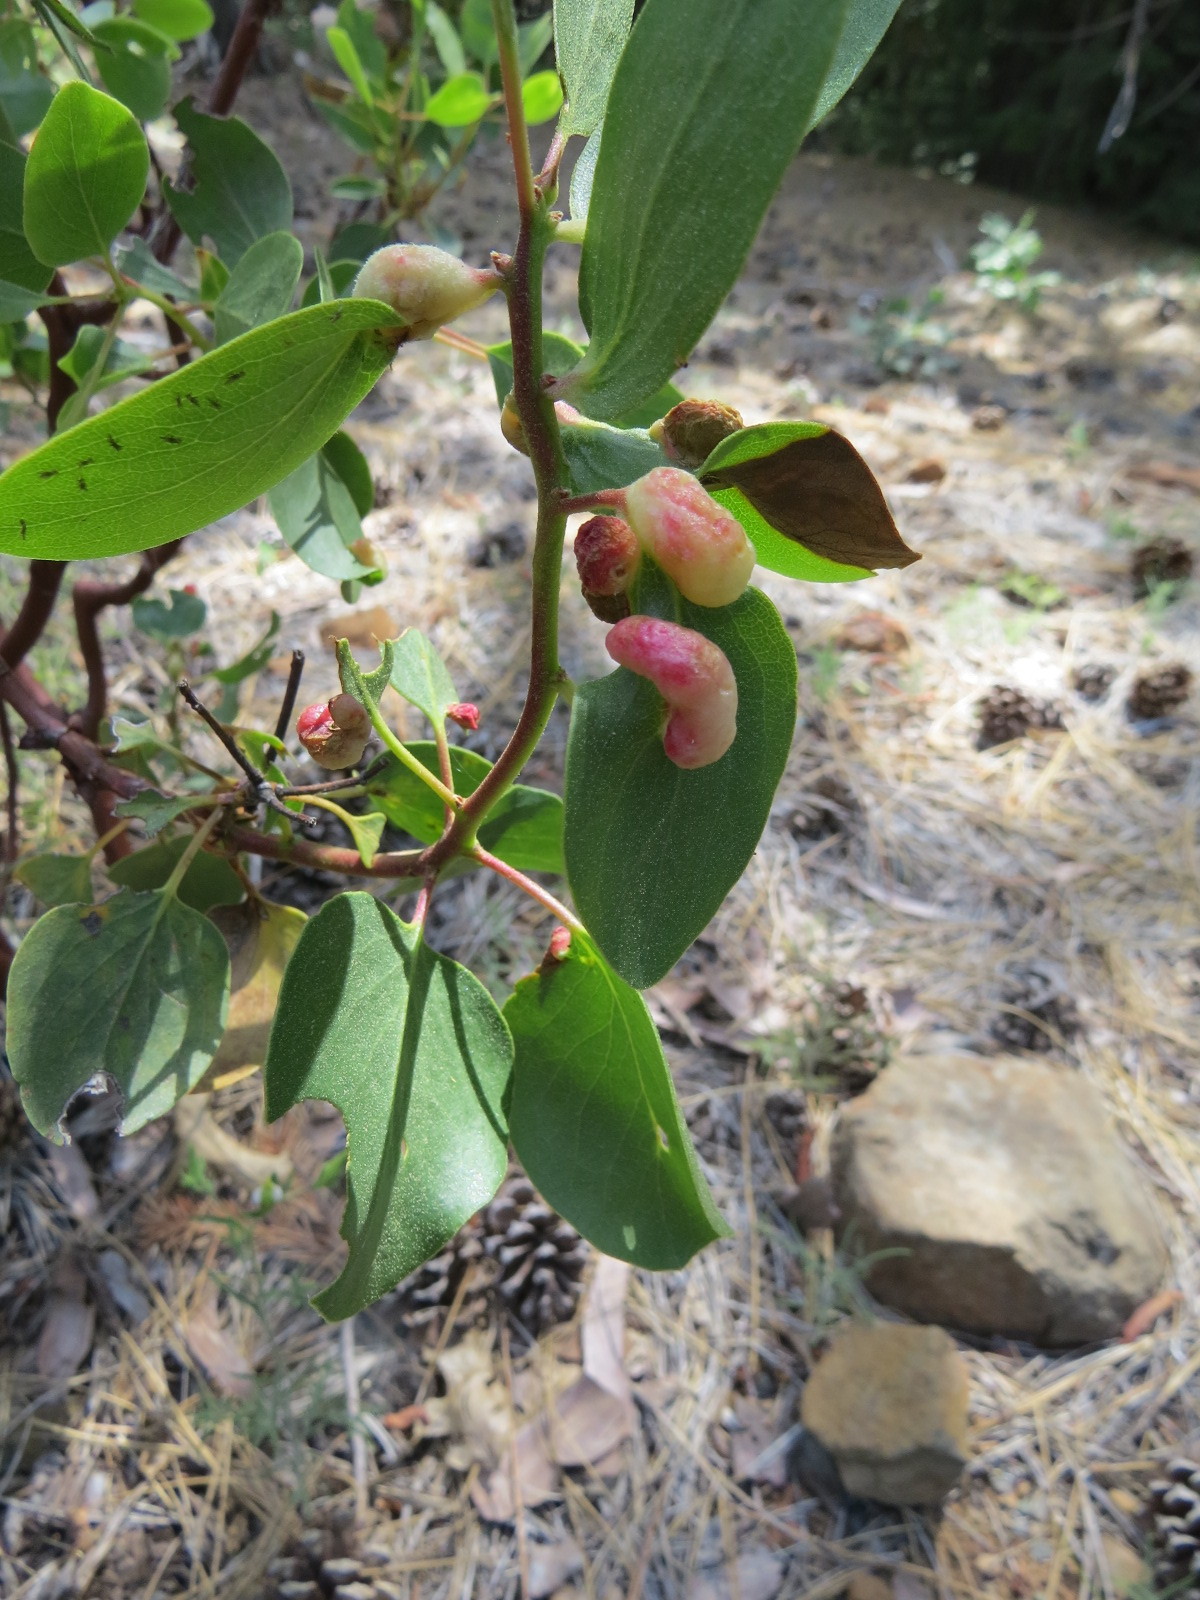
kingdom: Animalia
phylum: Arthropoda
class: Insecta
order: Hemiptera
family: Aphididae
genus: Tamalia
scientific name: Tamalia coweni
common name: Manzanita leafgall aphid
